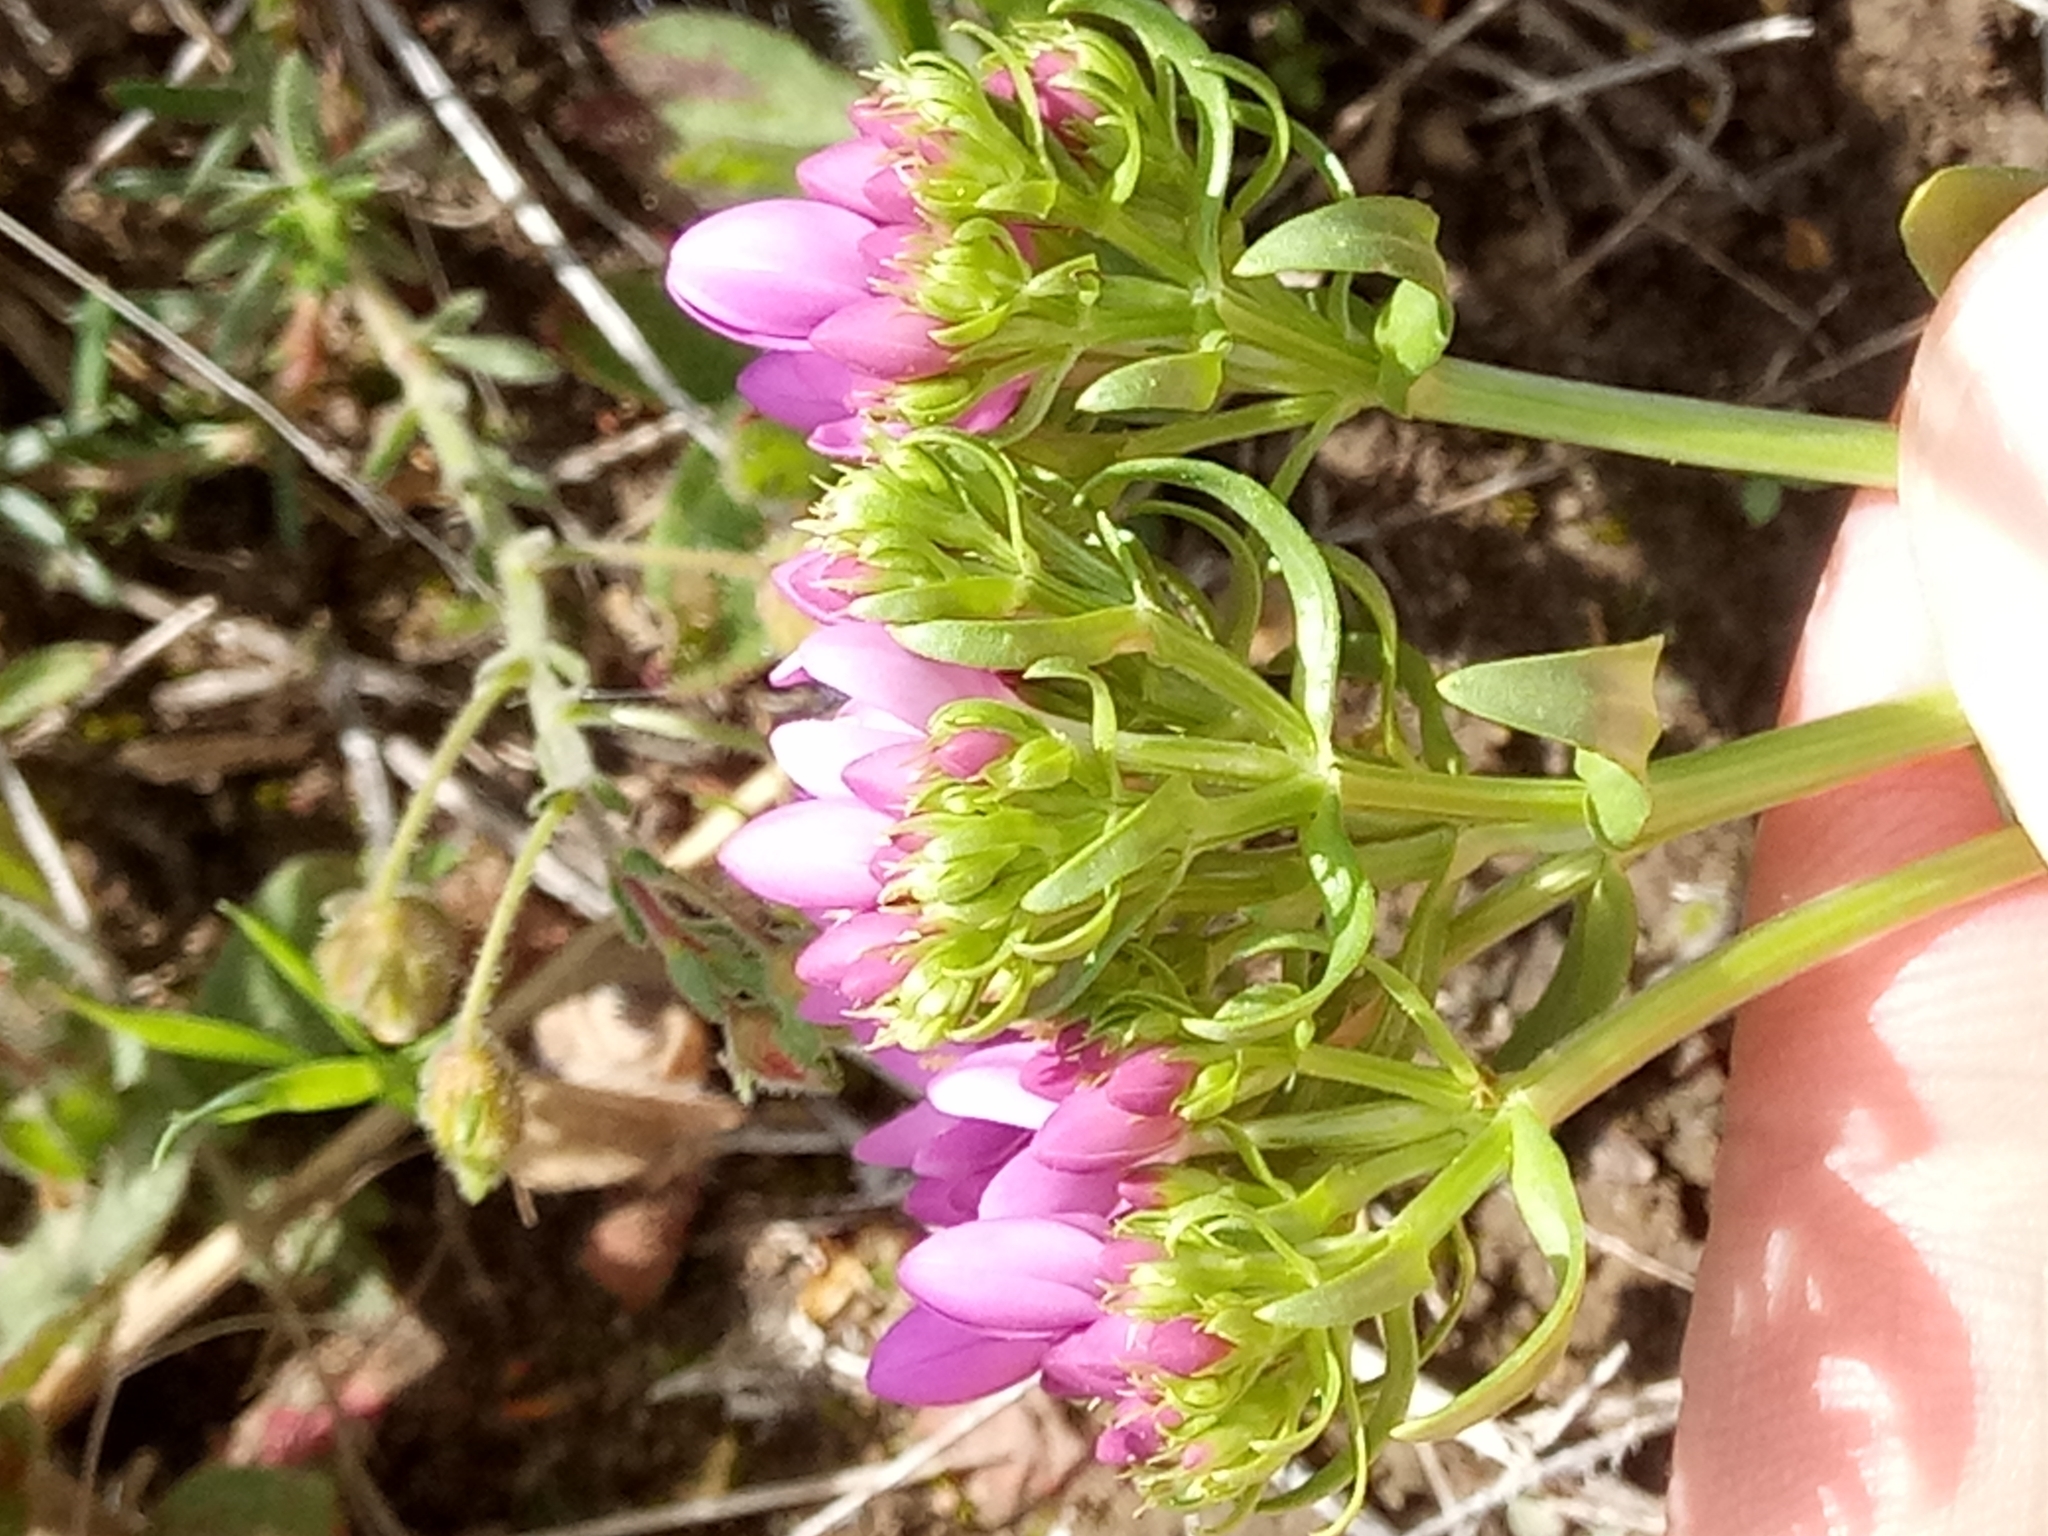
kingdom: Plantae
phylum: Tracheophyta
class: Magnoliopsida
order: Gentianales
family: Gentianaceae
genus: Centaurium
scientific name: Centaurium erythraea
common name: Common centaury
